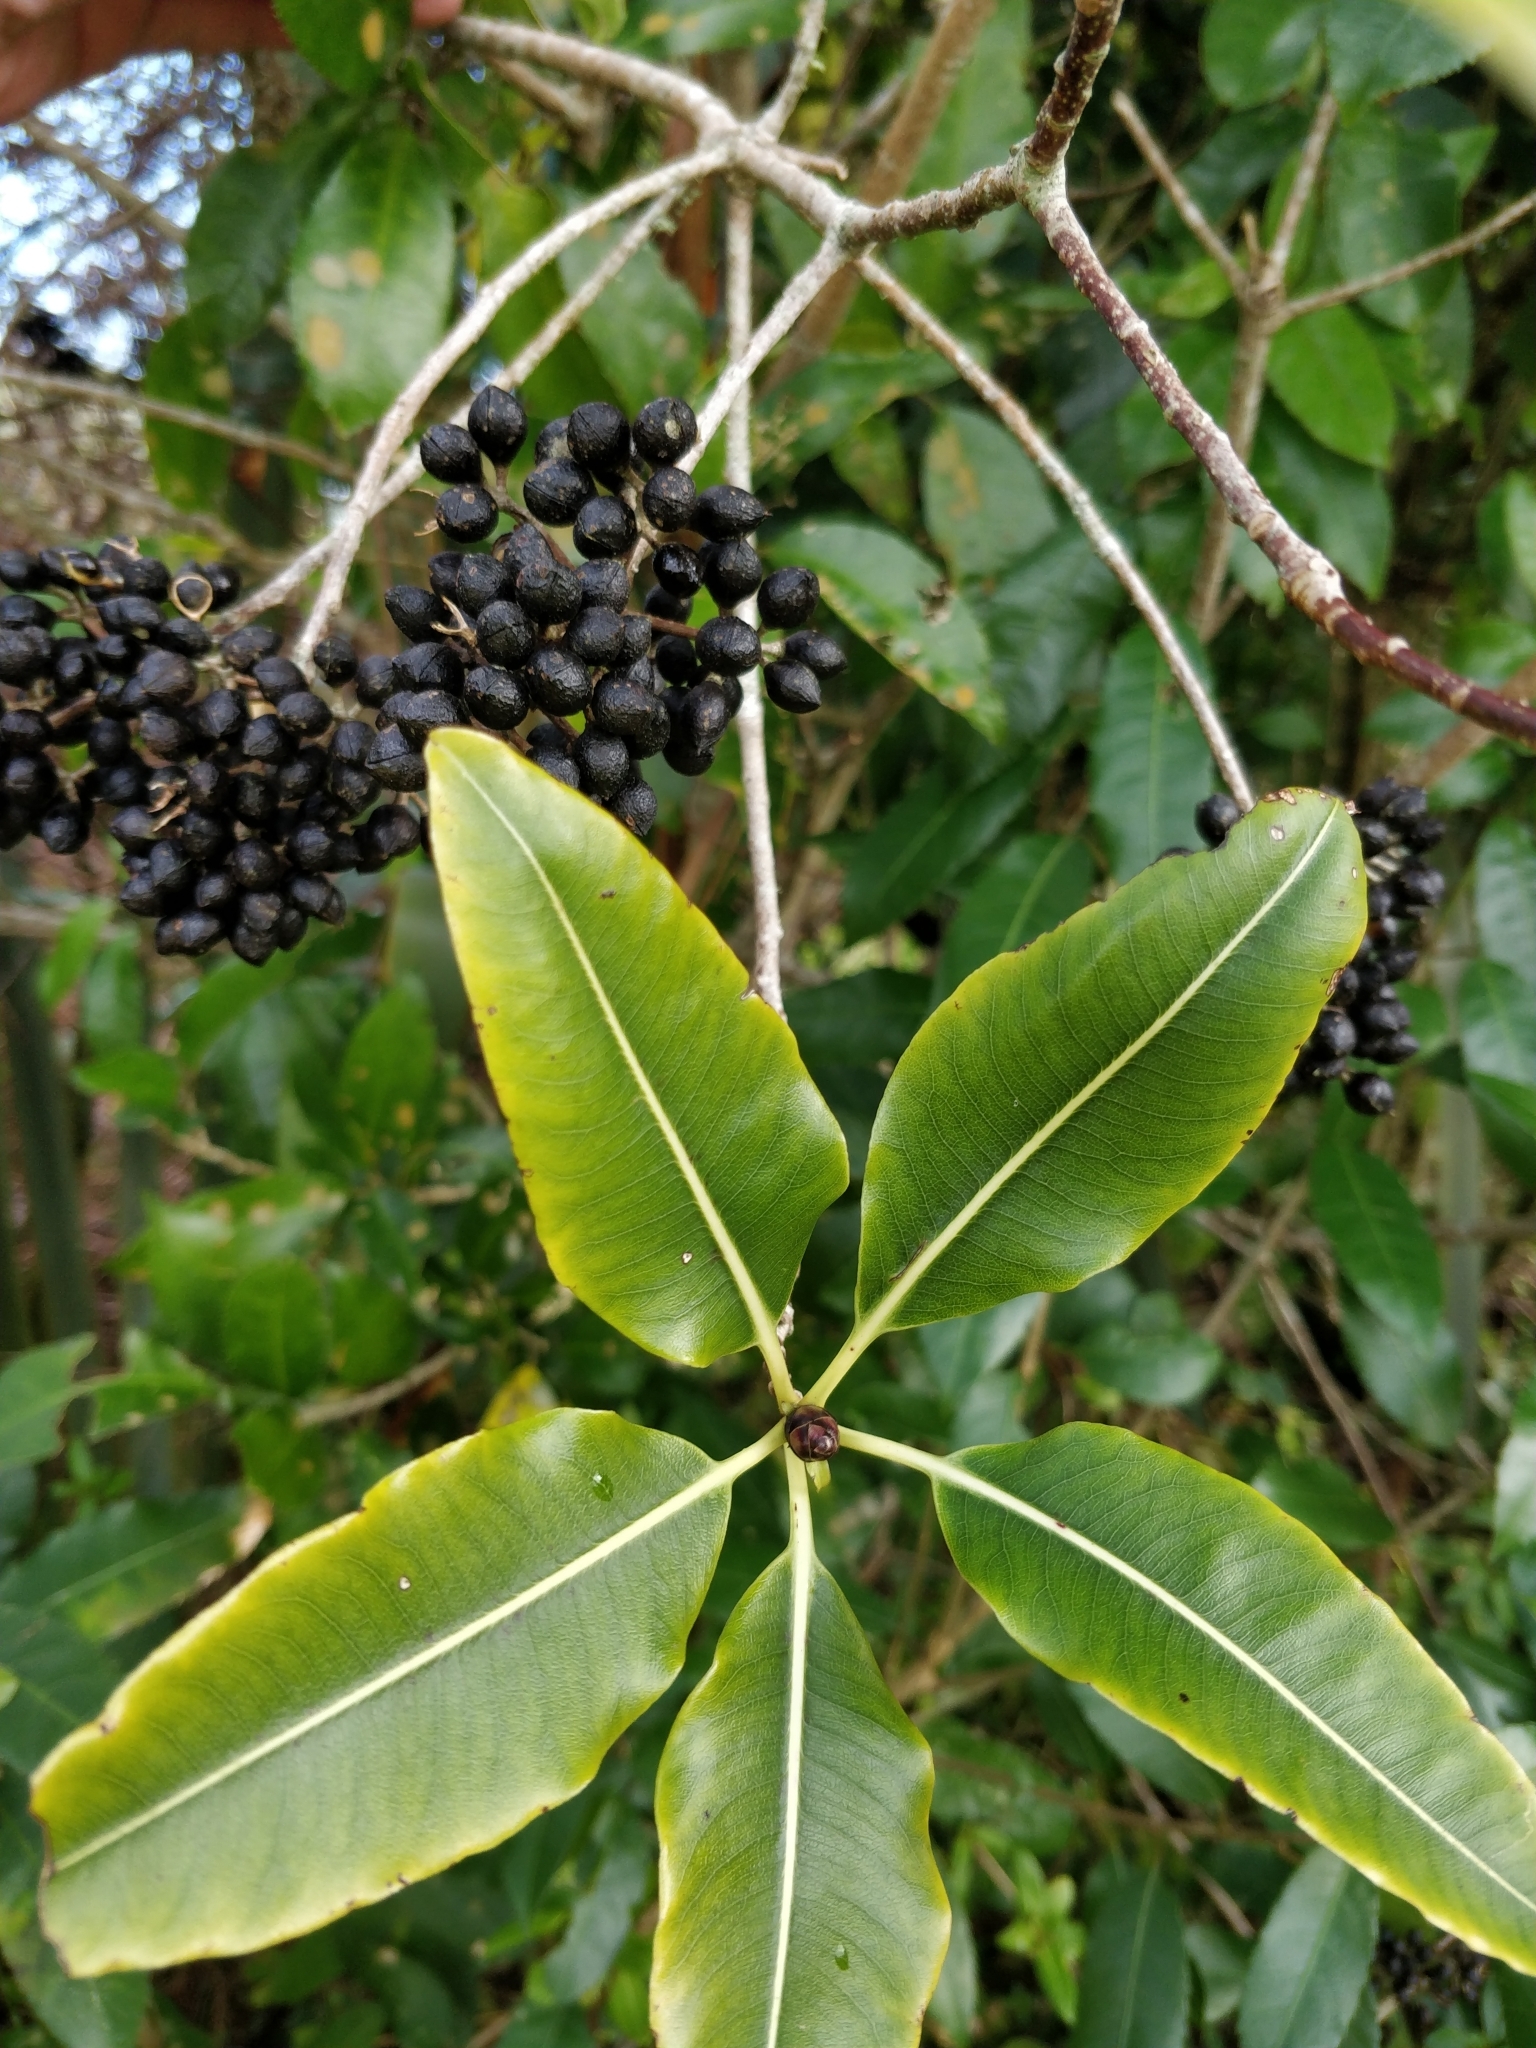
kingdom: Plantae
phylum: Tracheophyta
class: Magnoliopsida
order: Apiales
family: Pittosporaceae
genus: Pittosporum
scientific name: Pittosporum eugenioides
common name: Lemonwood
